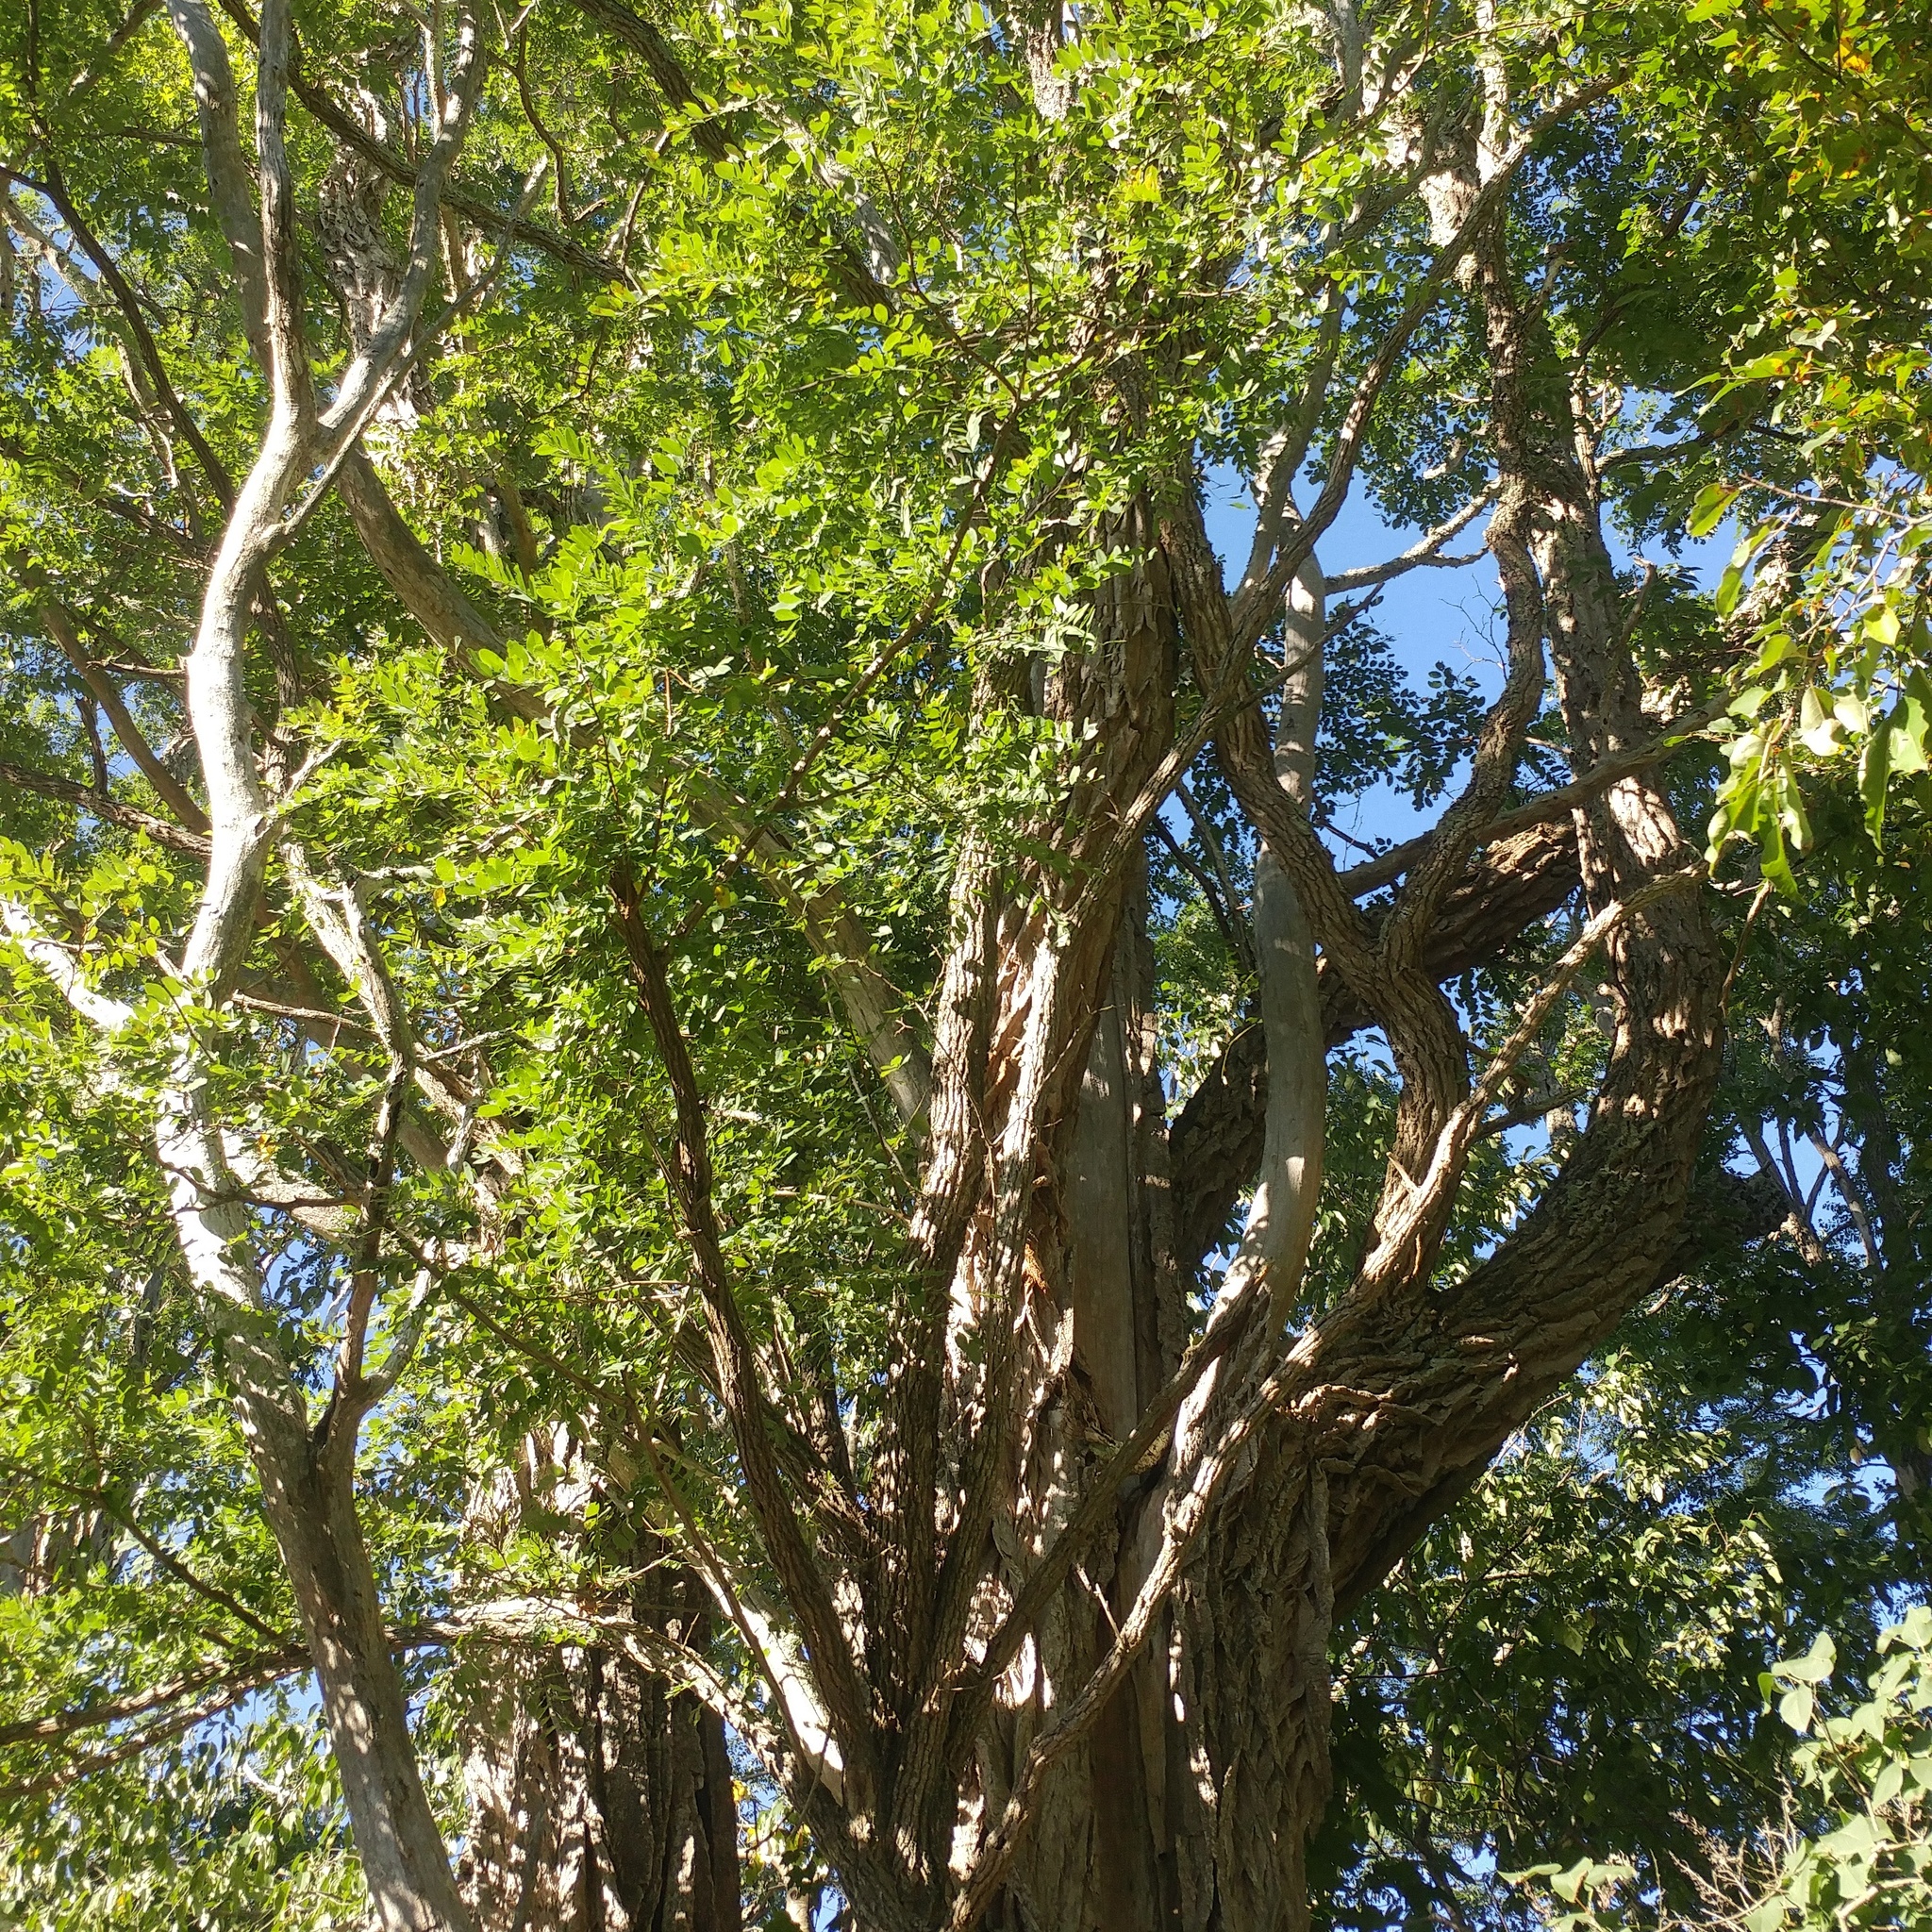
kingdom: Plantae
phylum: Tracheophyta
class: Magnoliopsida
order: Fabales
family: Fabaceae
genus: Robinia
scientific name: Robinia pseudoacacia
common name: Black locust
